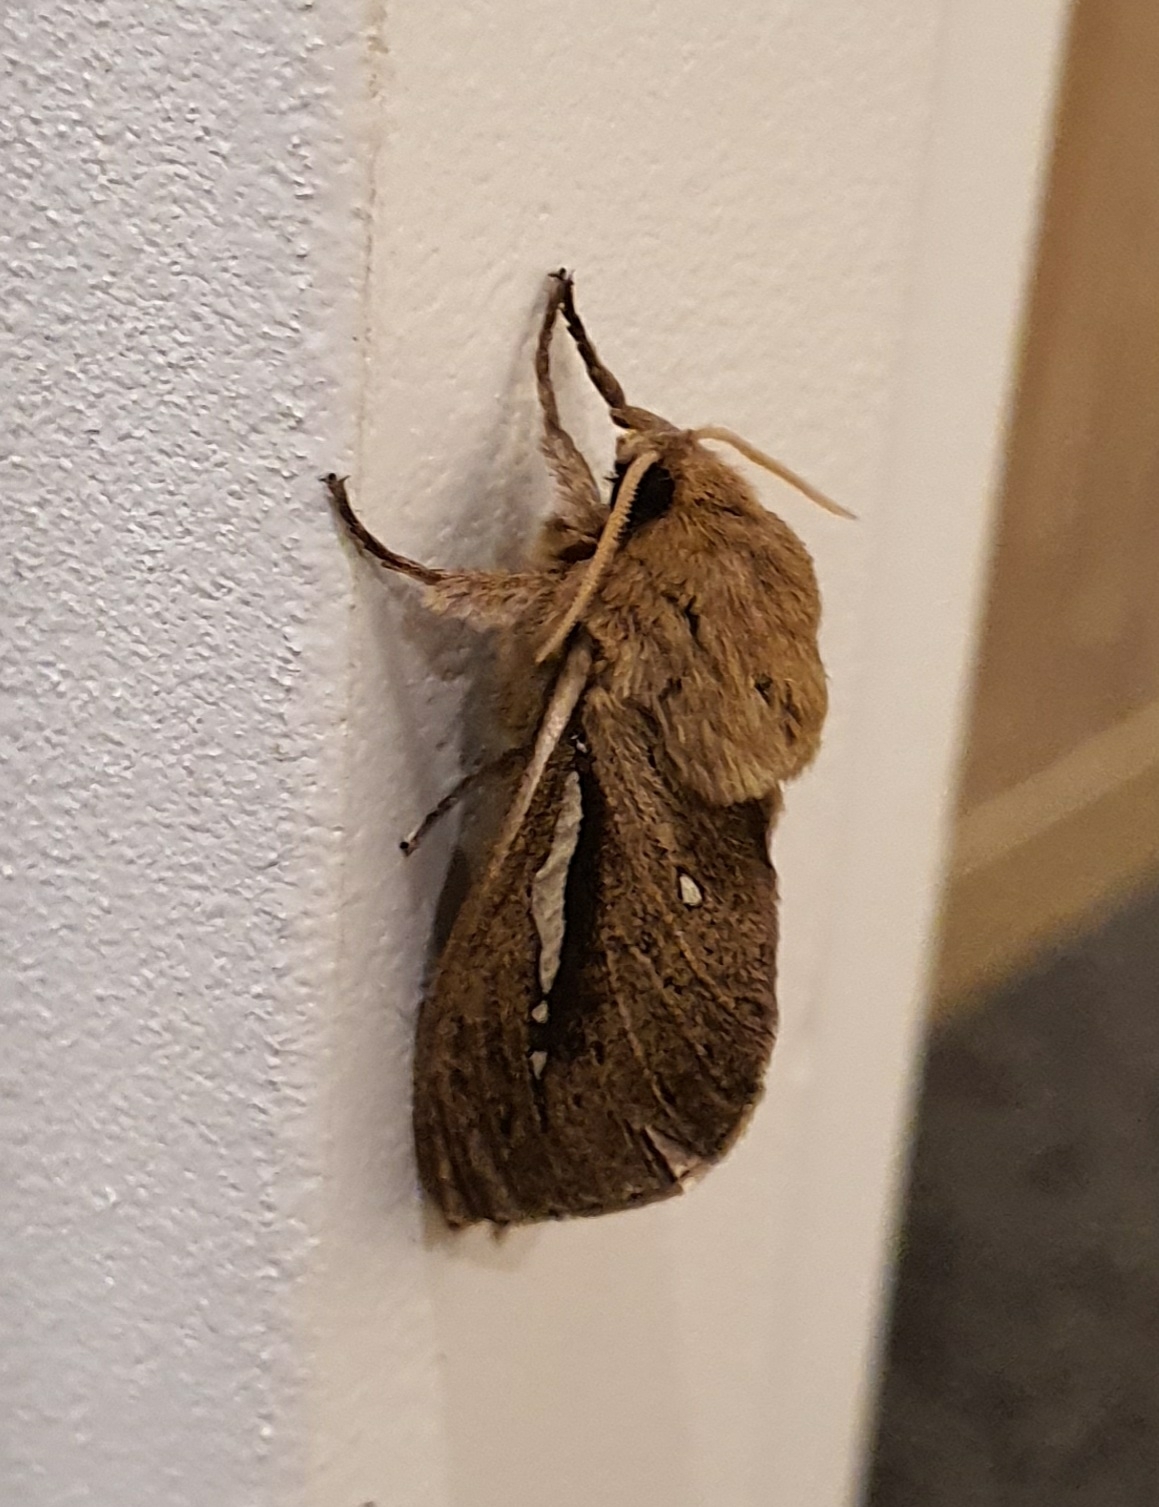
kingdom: Animalia
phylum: Arthropoda
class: Insecta
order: Lepidoptera
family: Hepialidae
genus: Wiseana
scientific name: Wiseana umbraculatus
